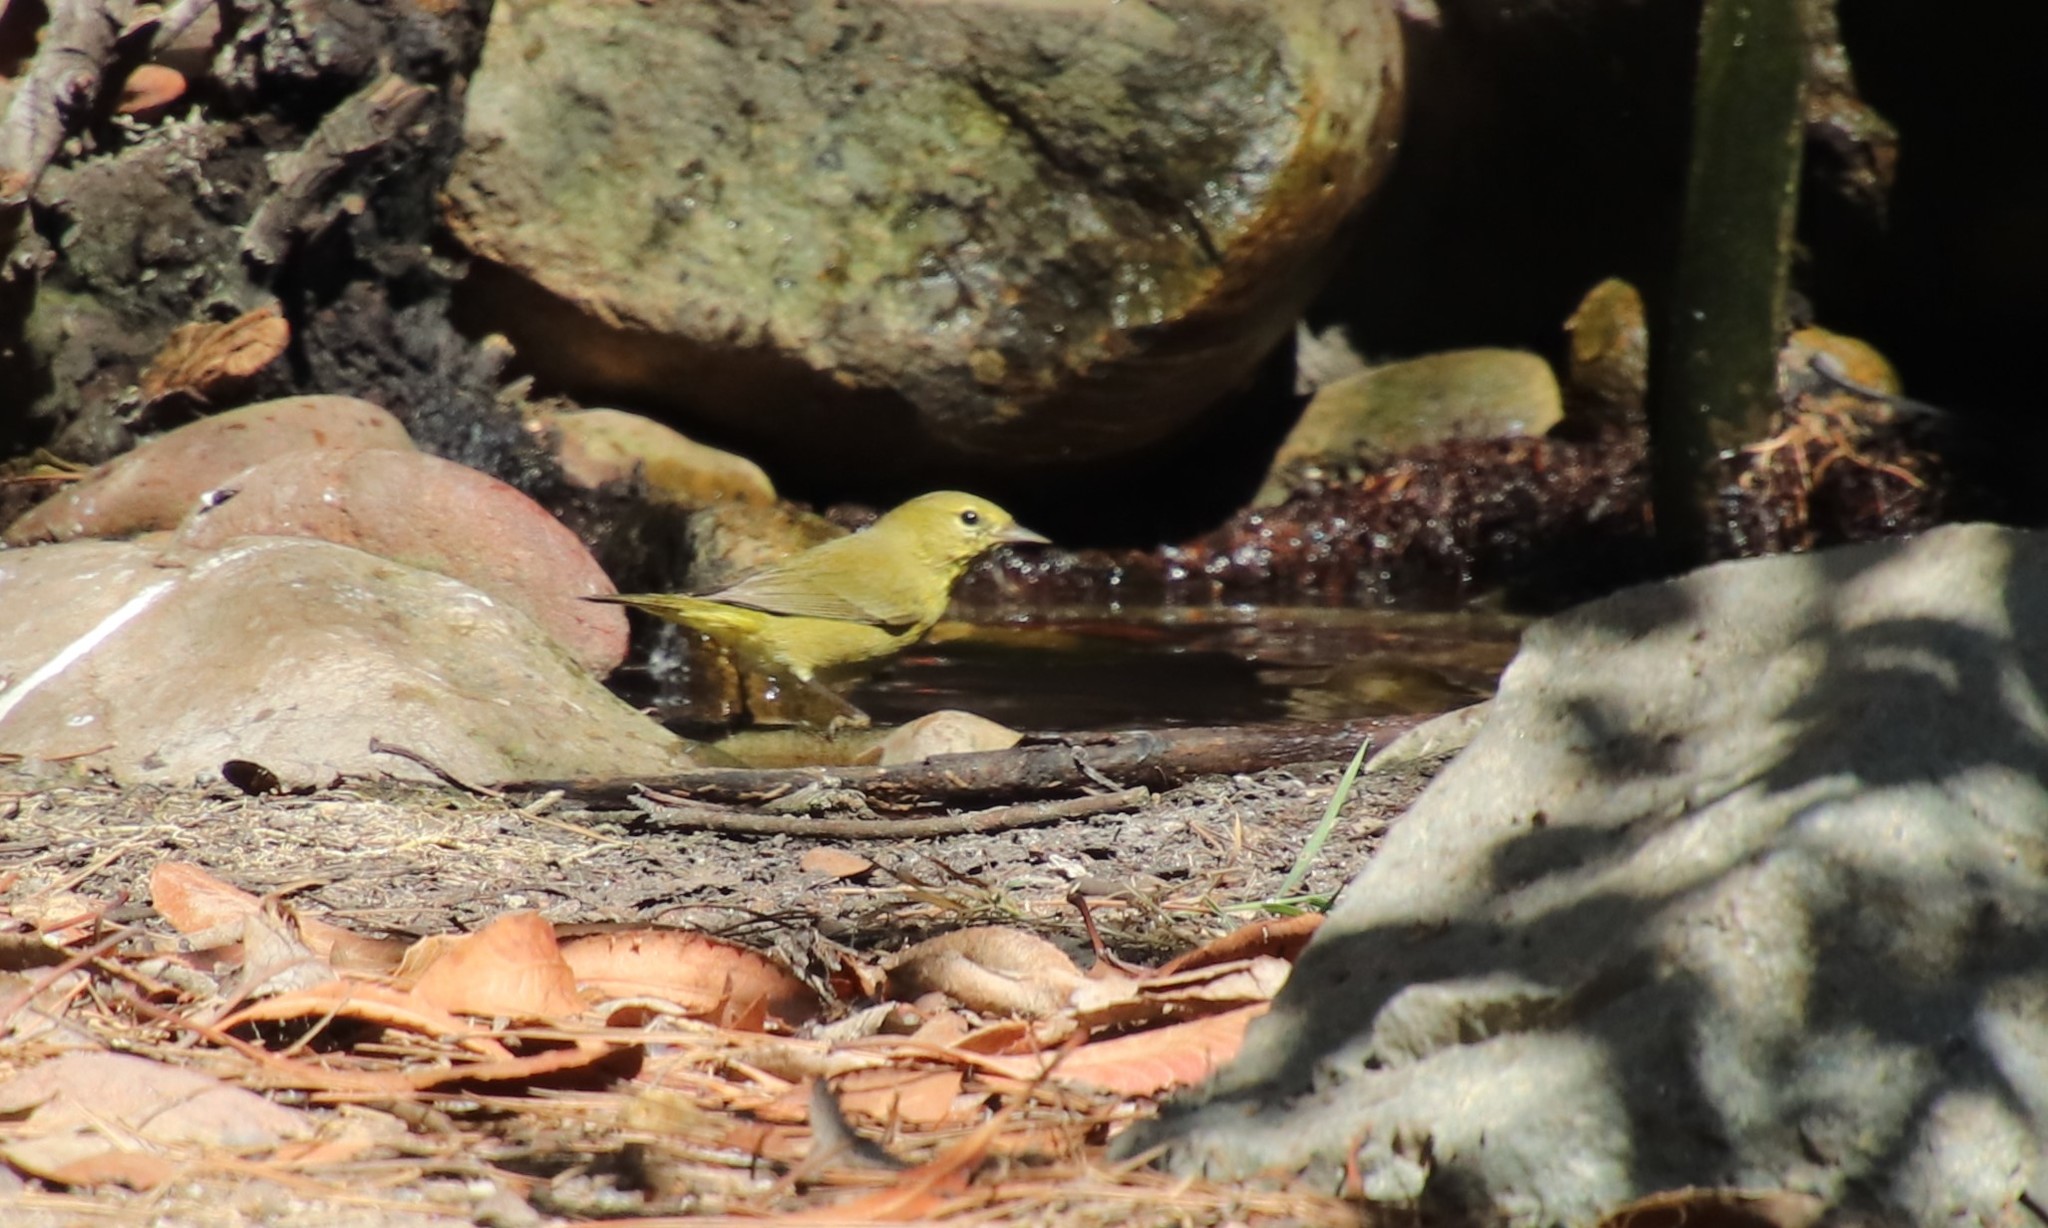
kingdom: Animalia
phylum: Chordata
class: Aves
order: Passeriformes
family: Parulidae
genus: Leiothlypis
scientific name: Leiothlypis celata
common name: Orange-crowned warbler
